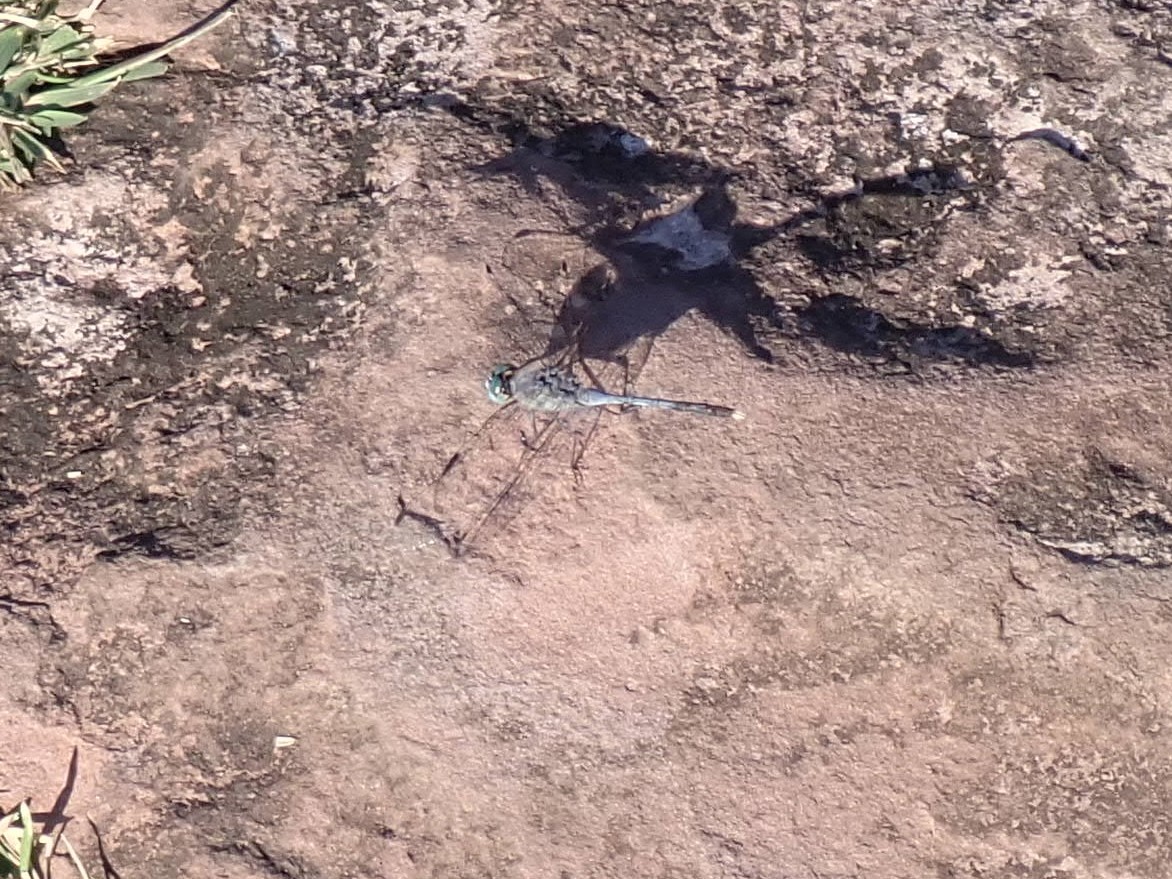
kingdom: Animalia
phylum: Arthropoda
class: Insecta
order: Odonata
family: Libellulidae
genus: Diplacodes
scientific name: Diplacodes trivialis
